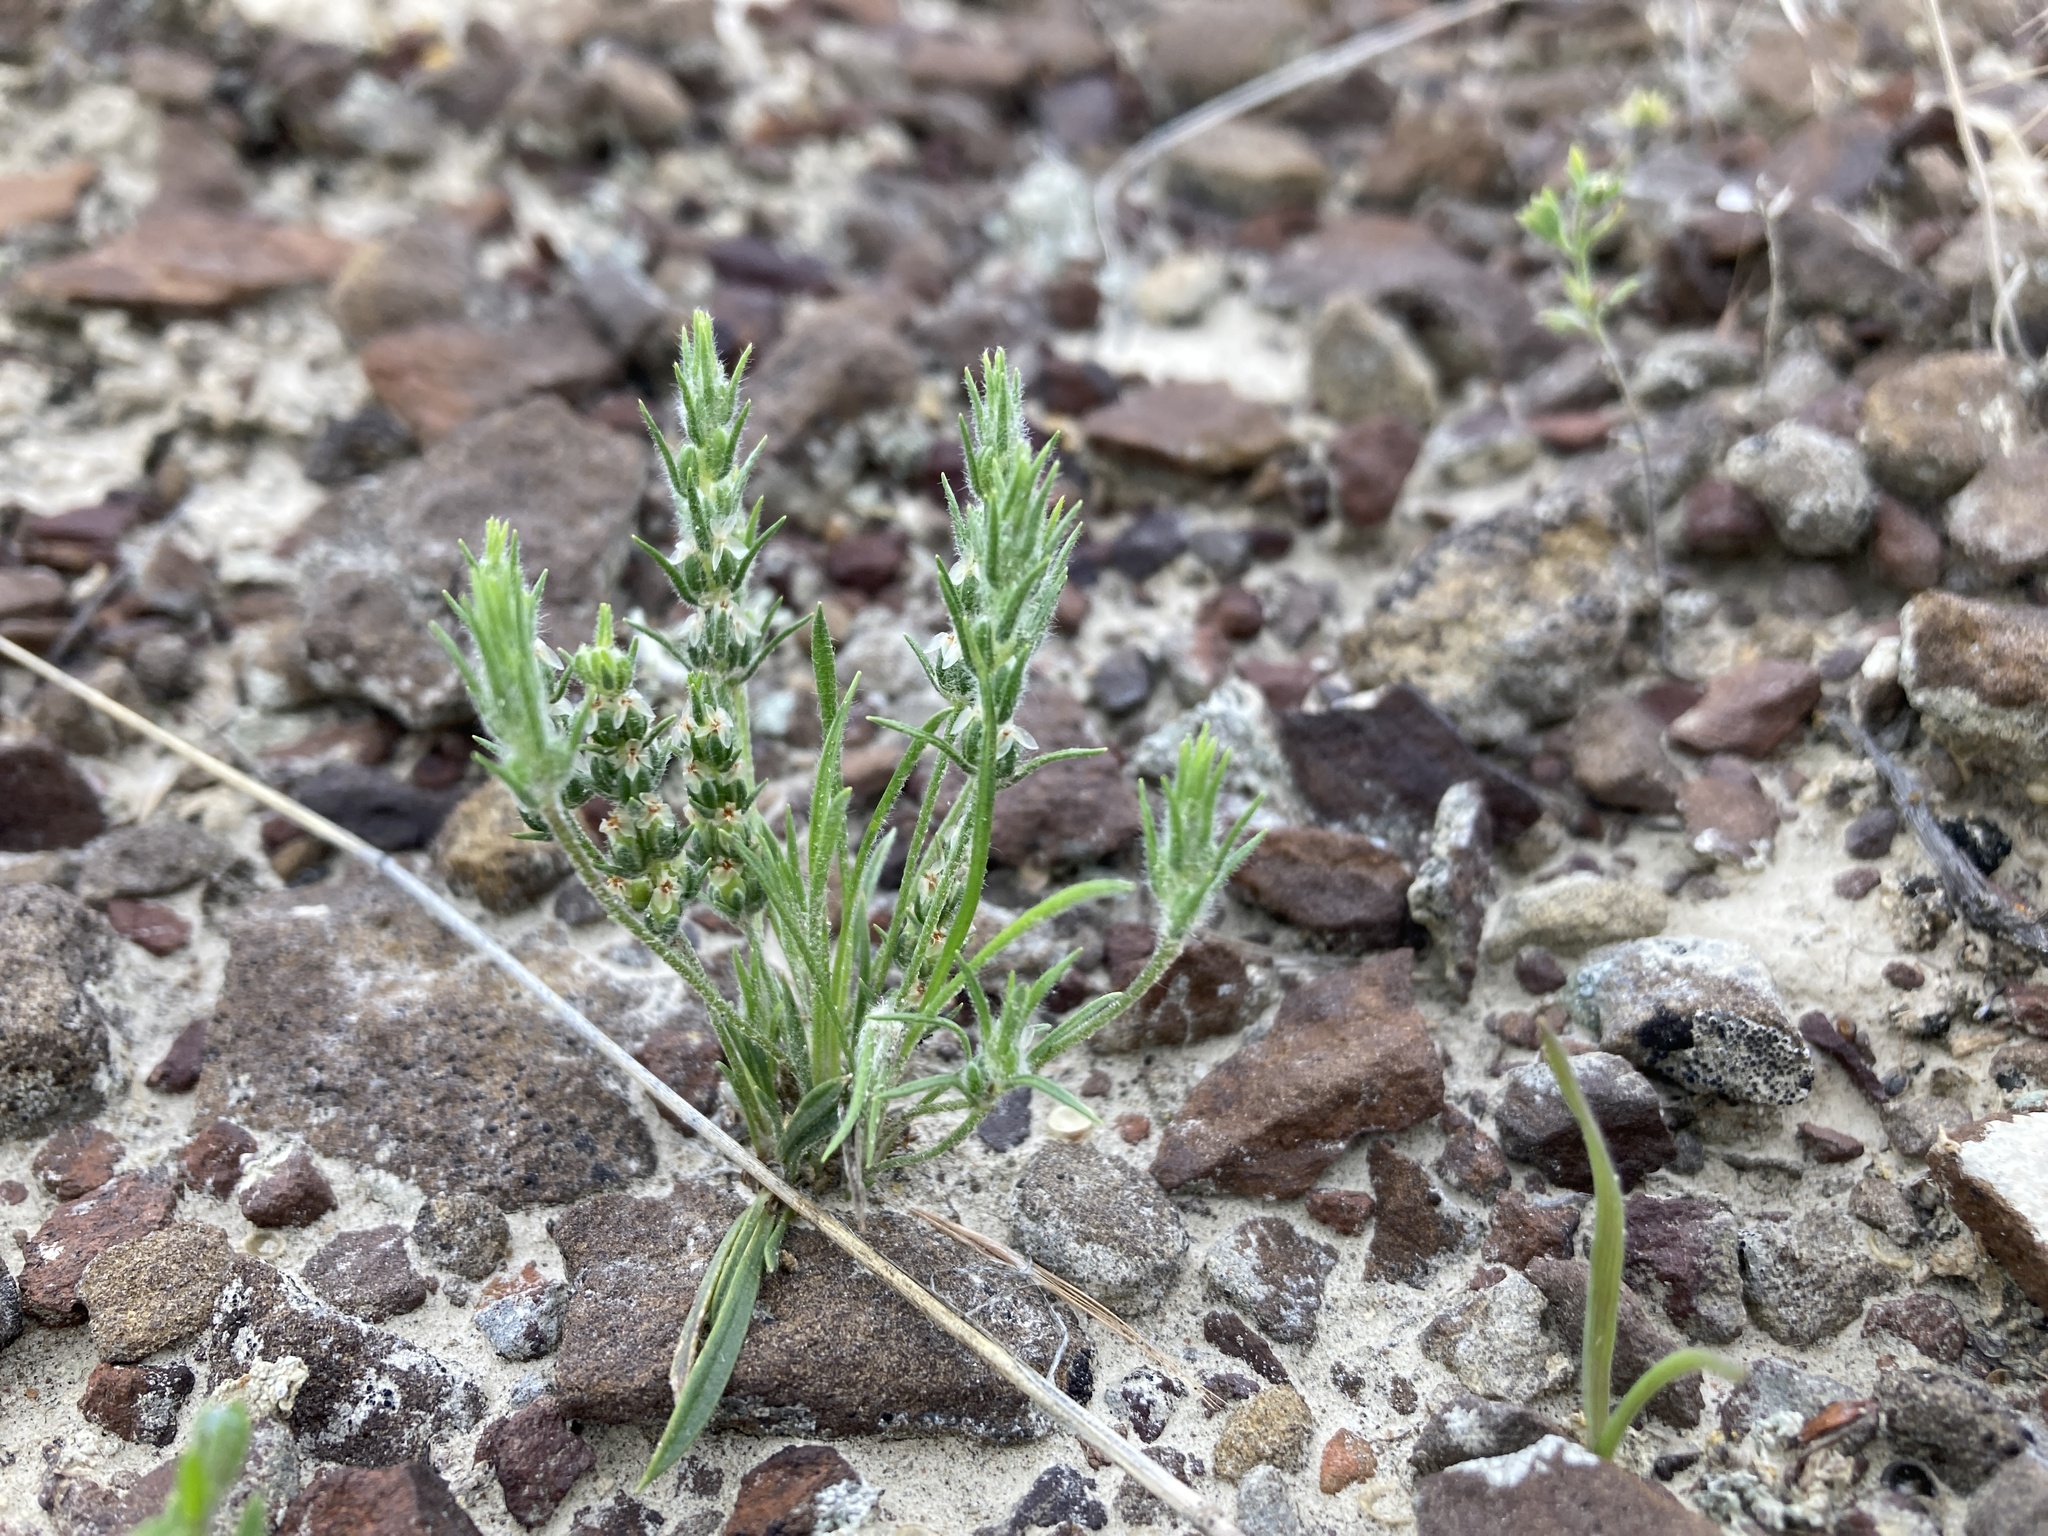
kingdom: Plantae
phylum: Tracheophyta
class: Magnoliopsida
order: Lamiales
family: Plantaginaceae
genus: Plantago
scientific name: Plantago patagonica
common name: Patagonia indian-wheat
